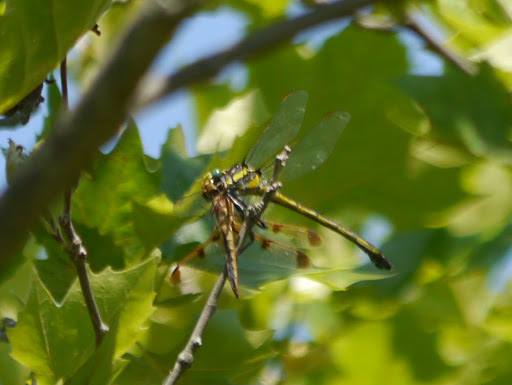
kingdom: Animalia
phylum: Arthropoda
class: Insecta
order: Odonata
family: Gomphidae
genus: Hagenius
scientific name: Hagenius brevistylus
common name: Dragonhunter
